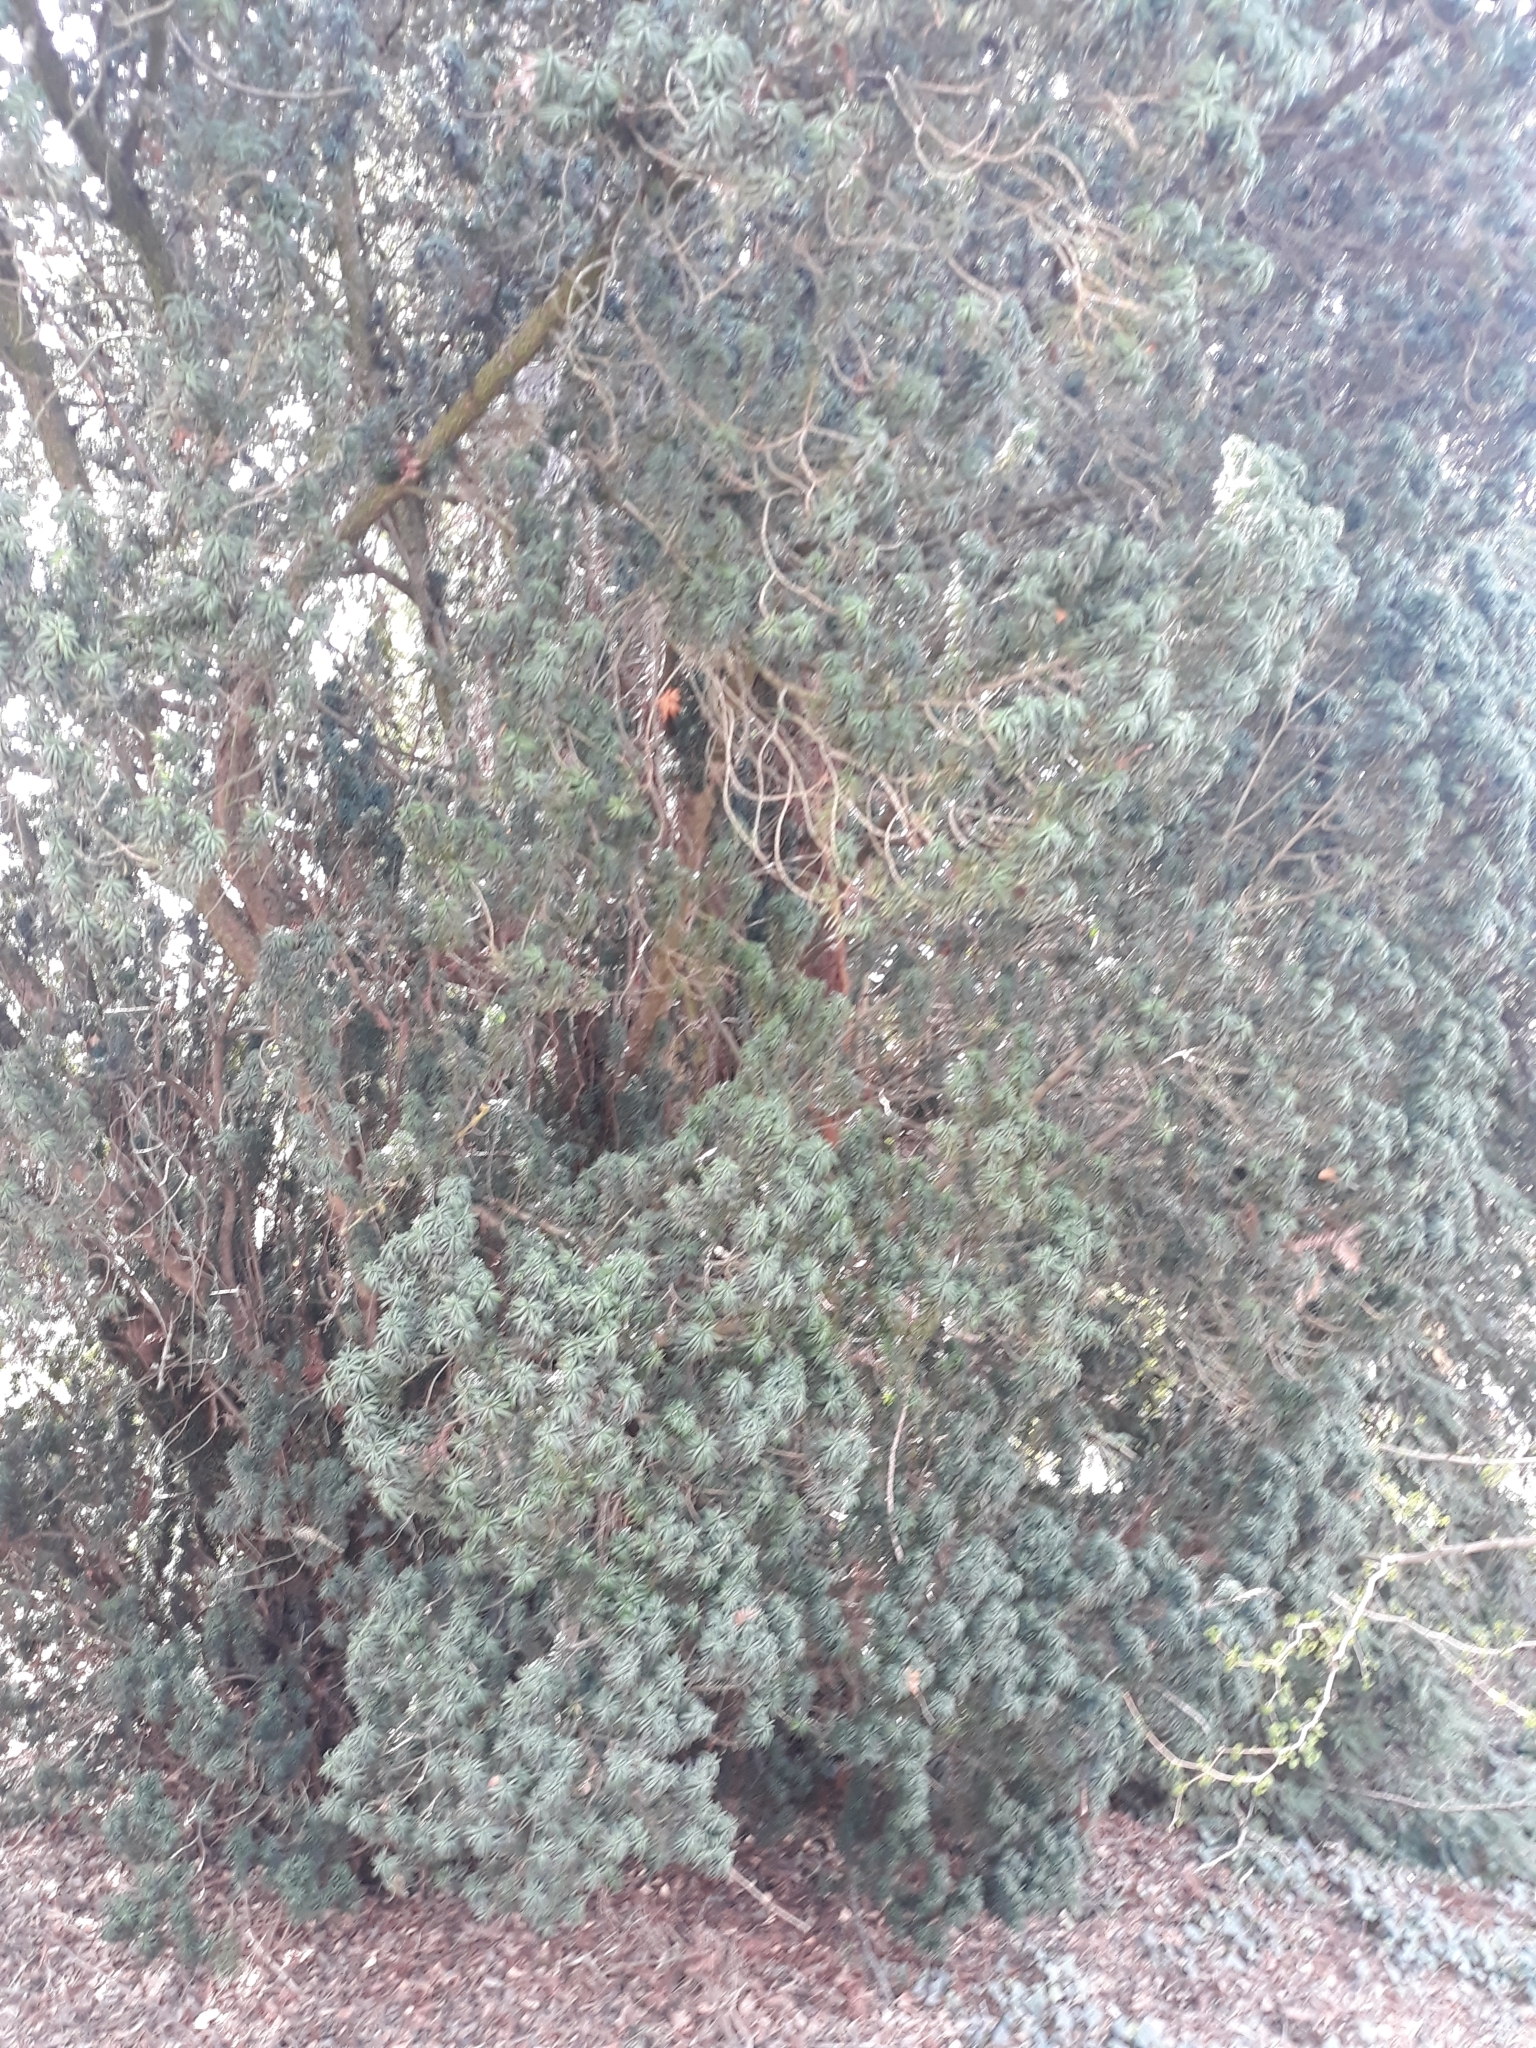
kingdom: Plantae
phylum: Tracheophyta
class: Pinopsida
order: Pinales
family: Taxaceae
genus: Taxus
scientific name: Taxus baccata
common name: Yew
